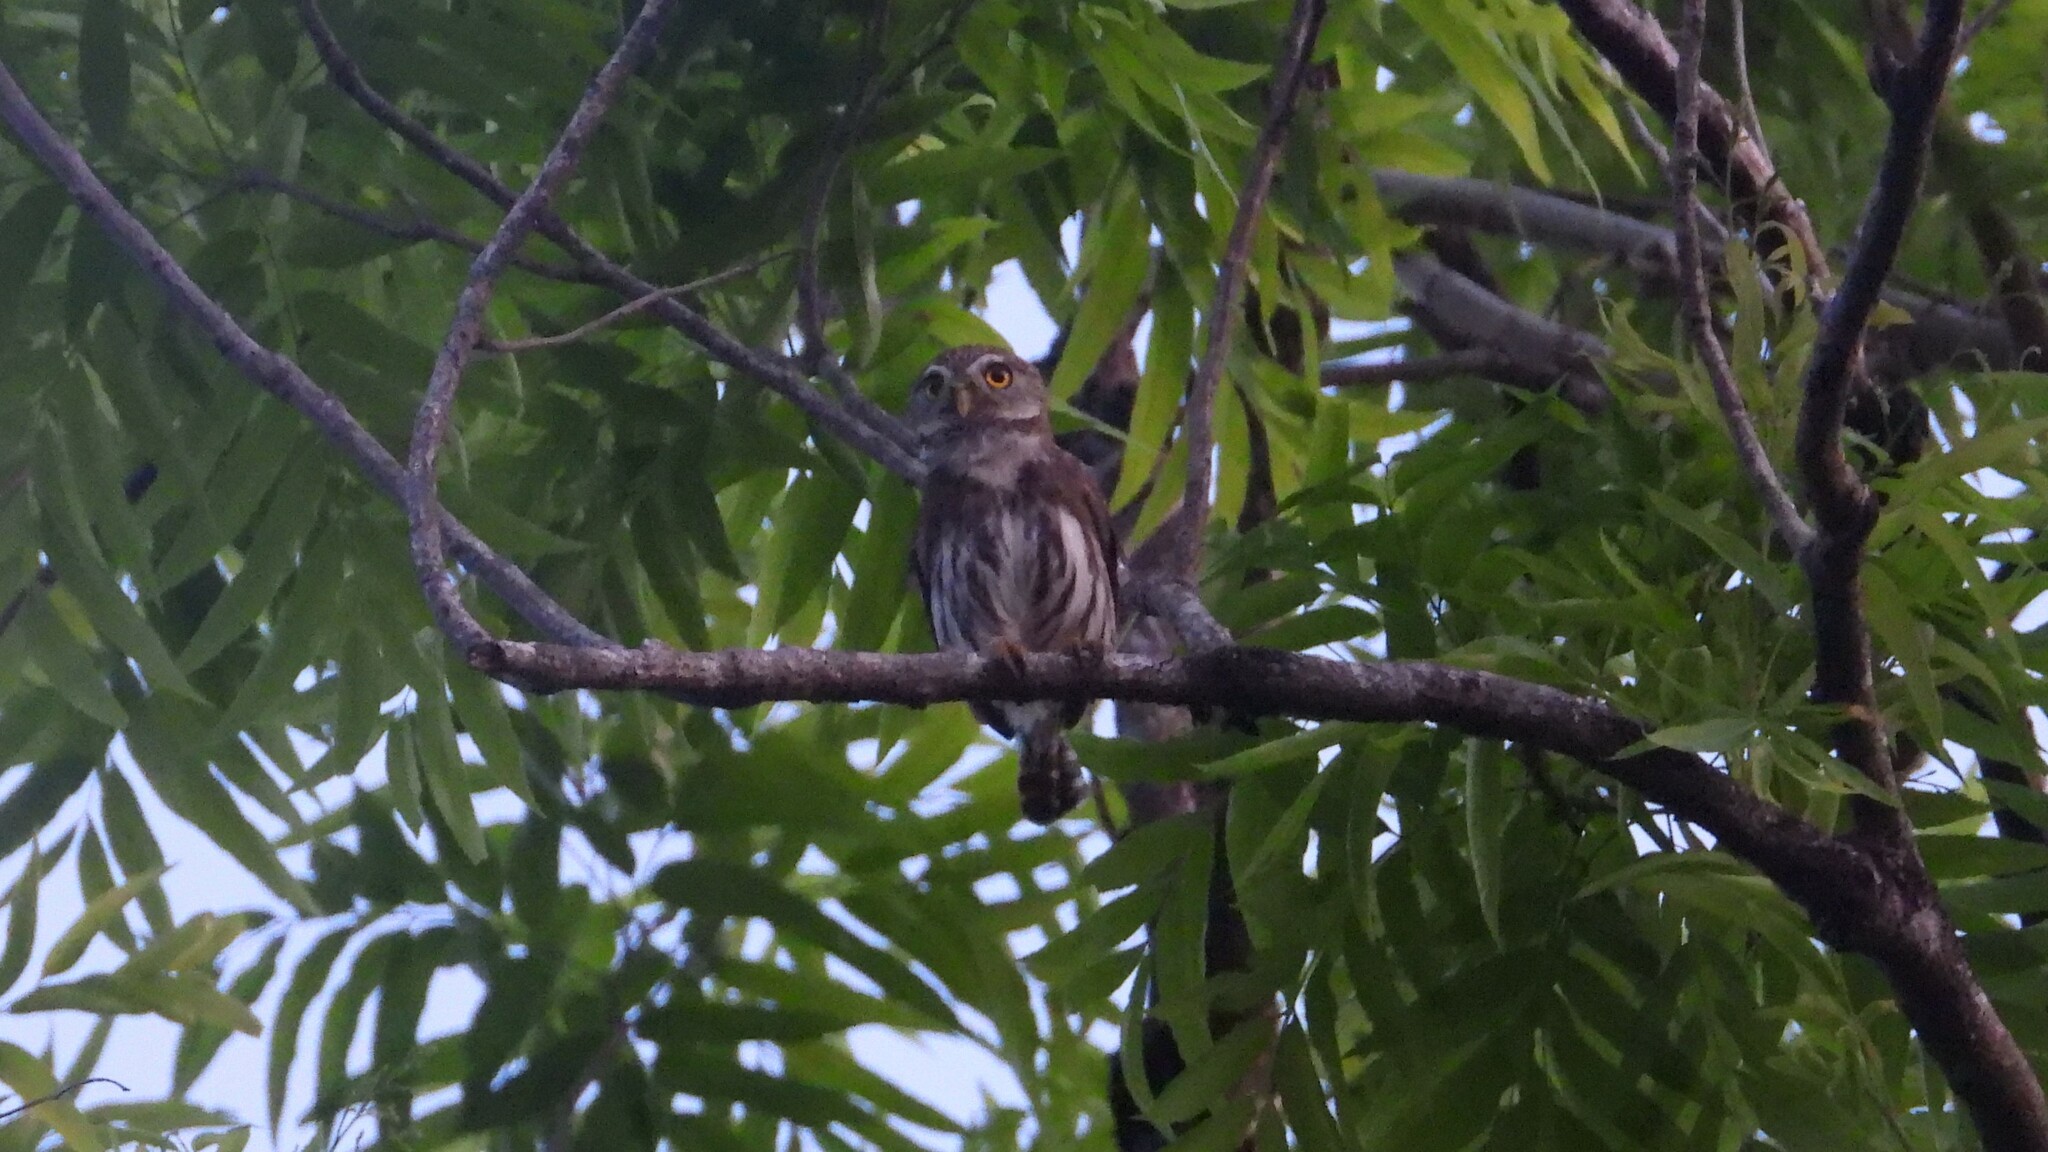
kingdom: Animalia
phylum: Chordata
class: Aves
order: Strigiformes
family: Strigidae
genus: Glaucidium
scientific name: Glaucidium brasilianum
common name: Ferruginous pygmy-owl
